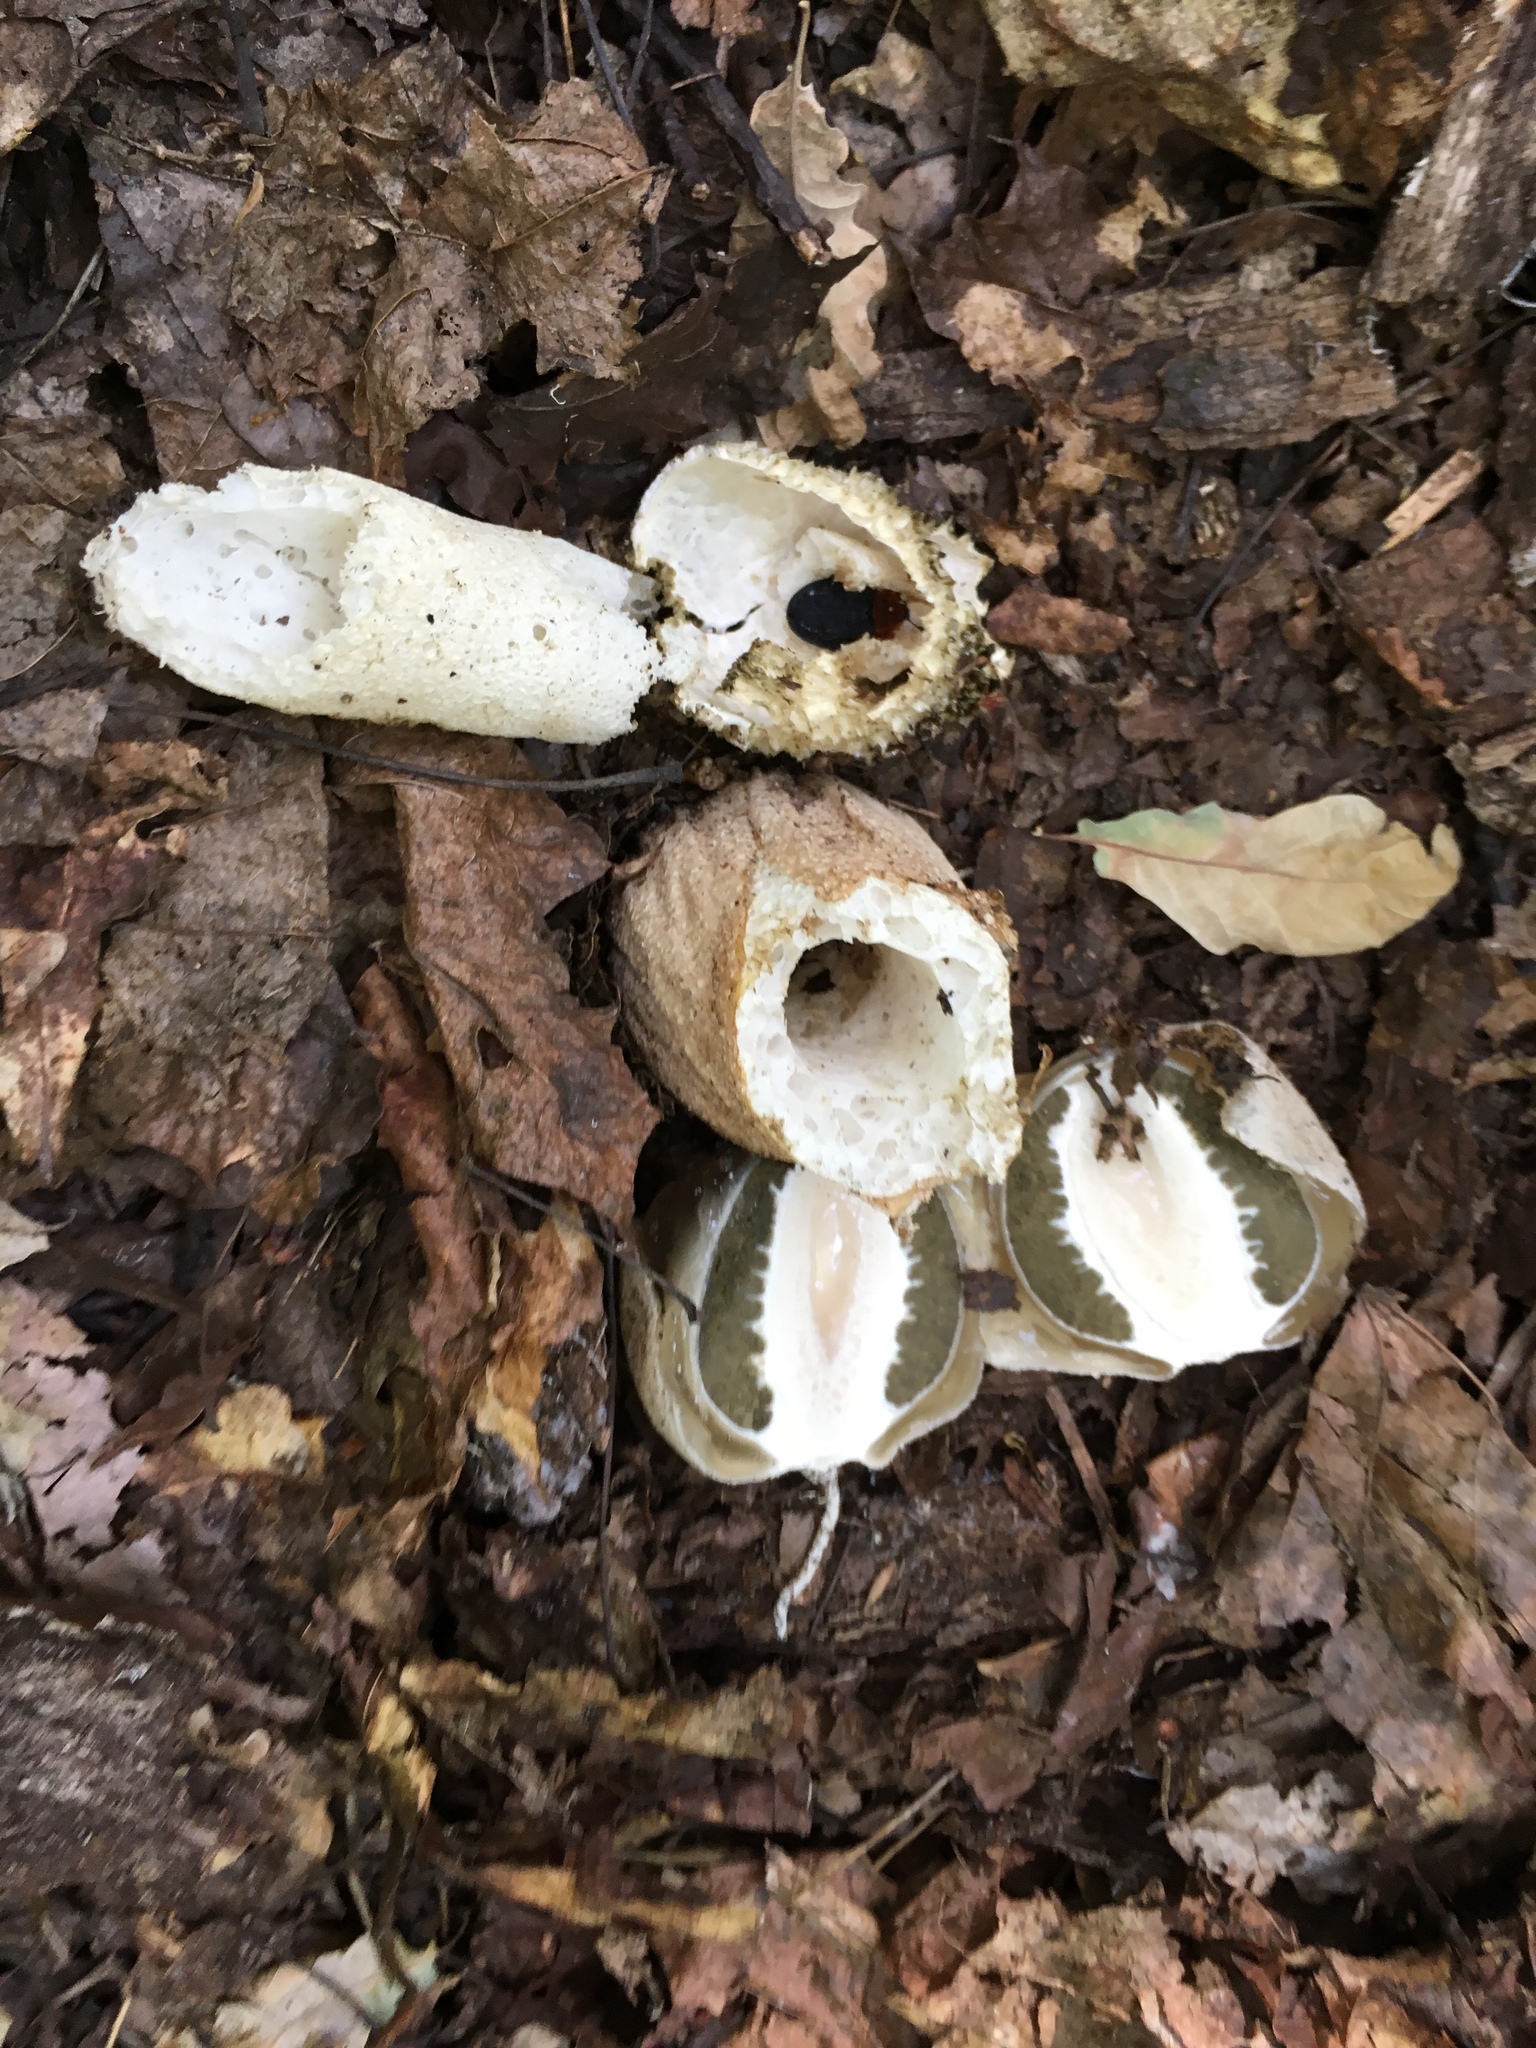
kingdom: Fungi
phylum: Basidiomycota
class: Agaricomycetes
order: Phallales
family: Phallaceae
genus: Phallus
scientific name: Phallus impudicus
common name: Common stinkhorn
